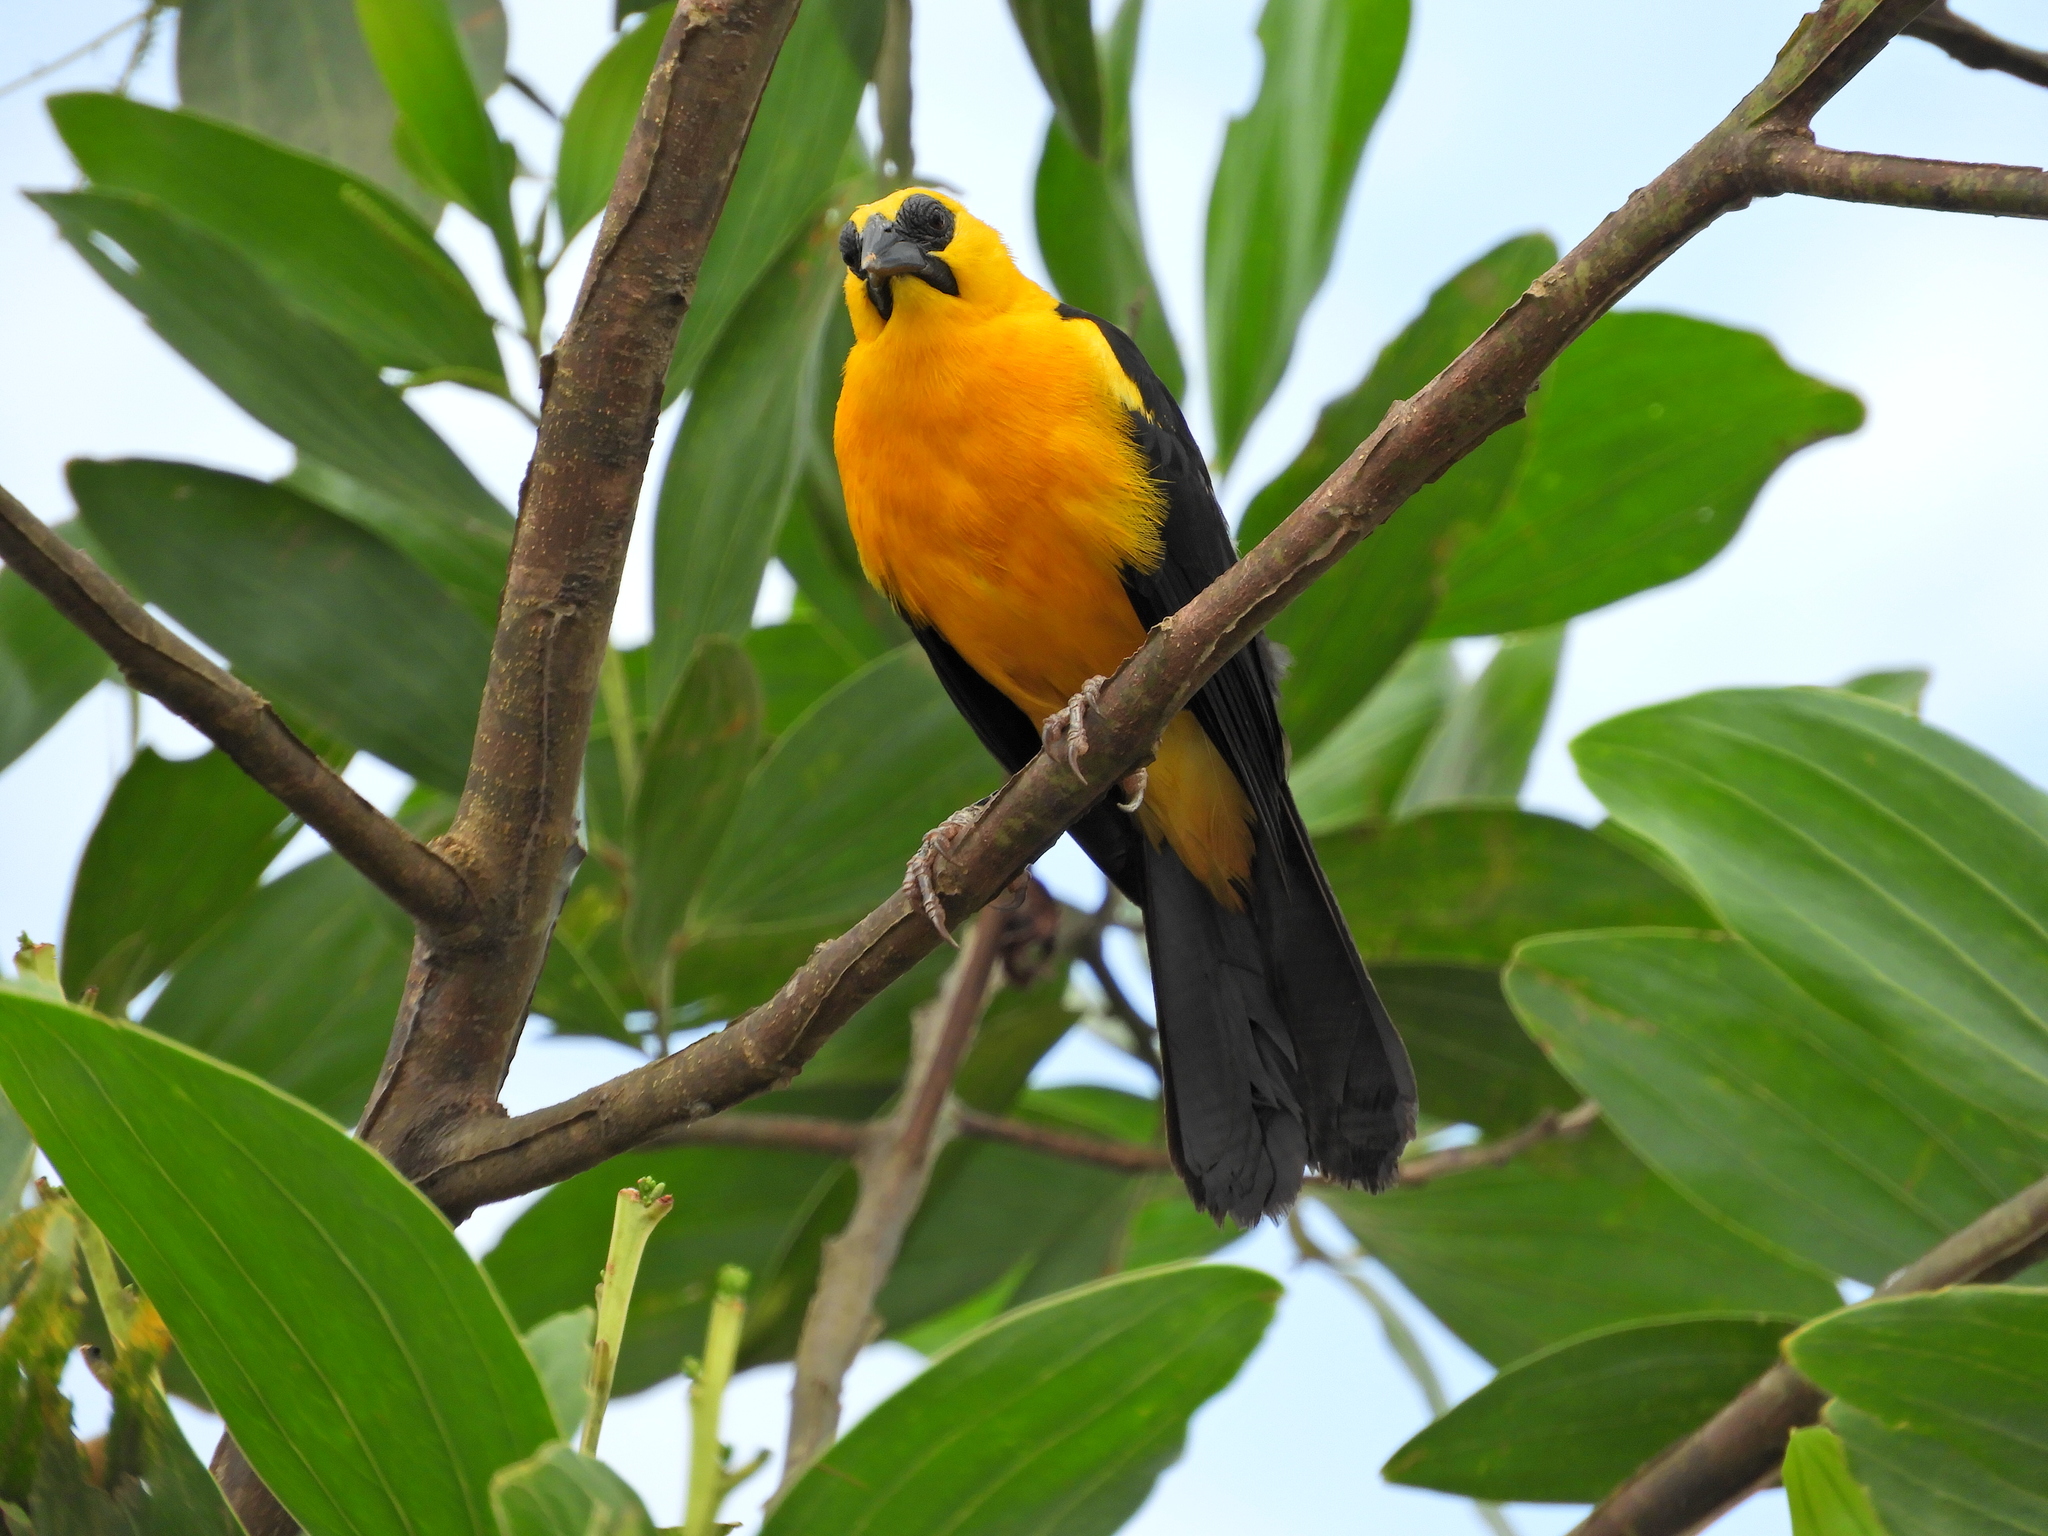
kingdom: Animalia
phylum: Chordata
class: Aves
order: Passeriformes
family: Icteridae
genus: Gymnomystax
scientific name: Gymnomystax mexicanus
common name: Oriole blackbird
